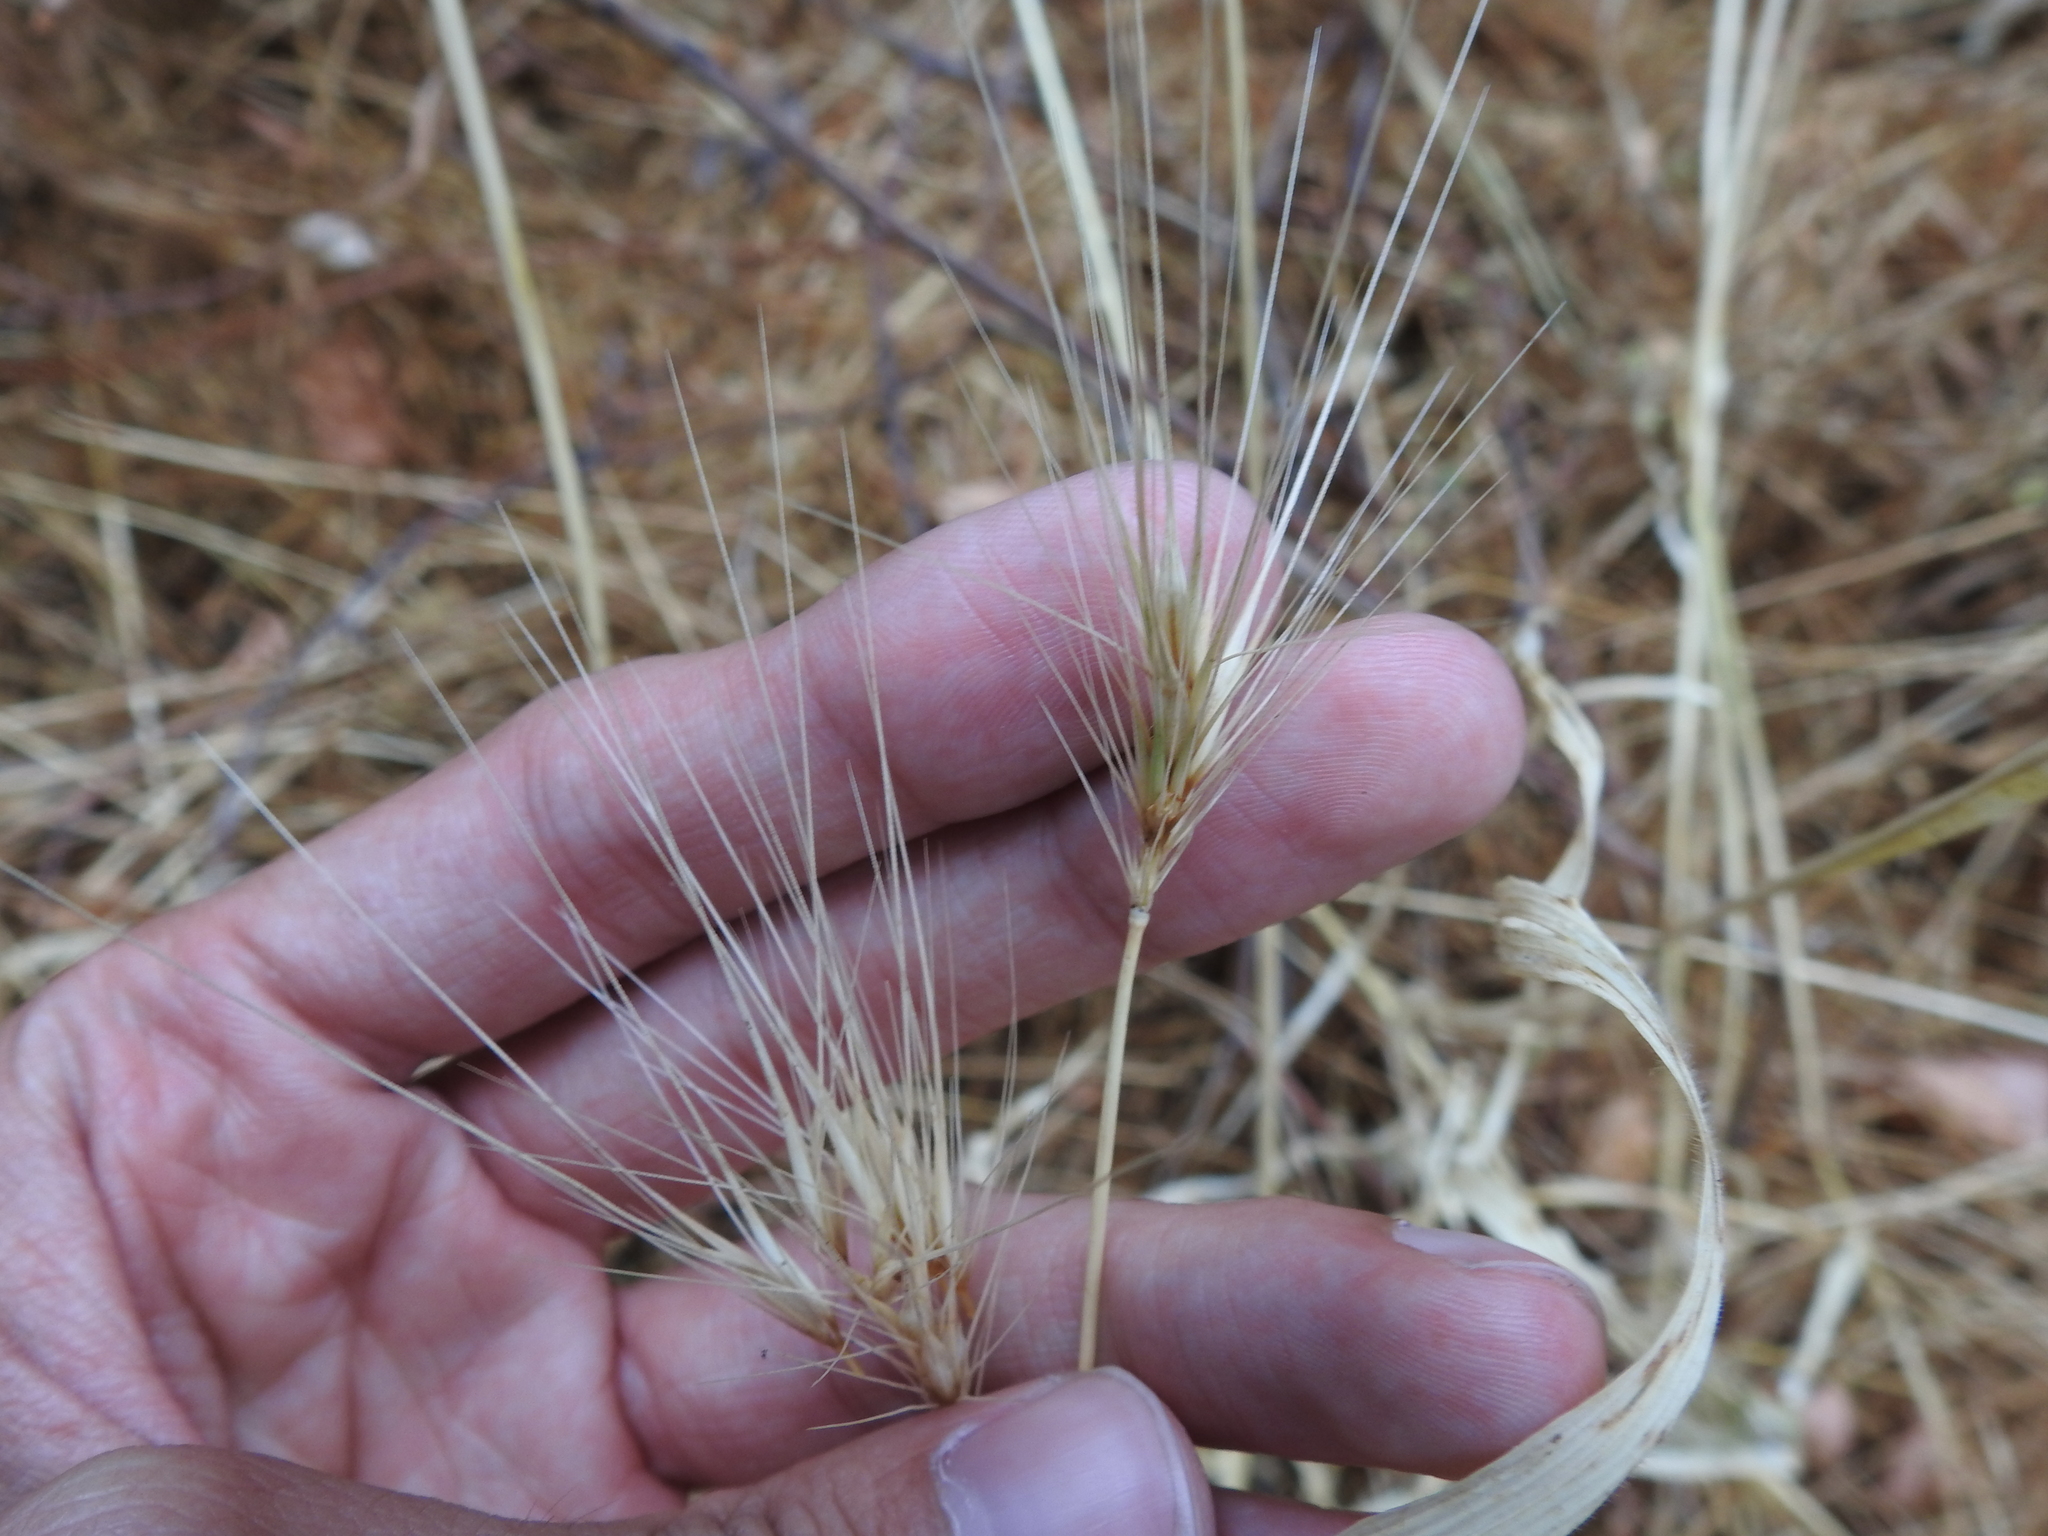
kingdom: Plantae
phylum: Tracheophyta
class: Liliopsida
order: Poales
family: Poaceae
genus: Hordeum
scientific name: Hordeum murinum
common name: Wall barley
